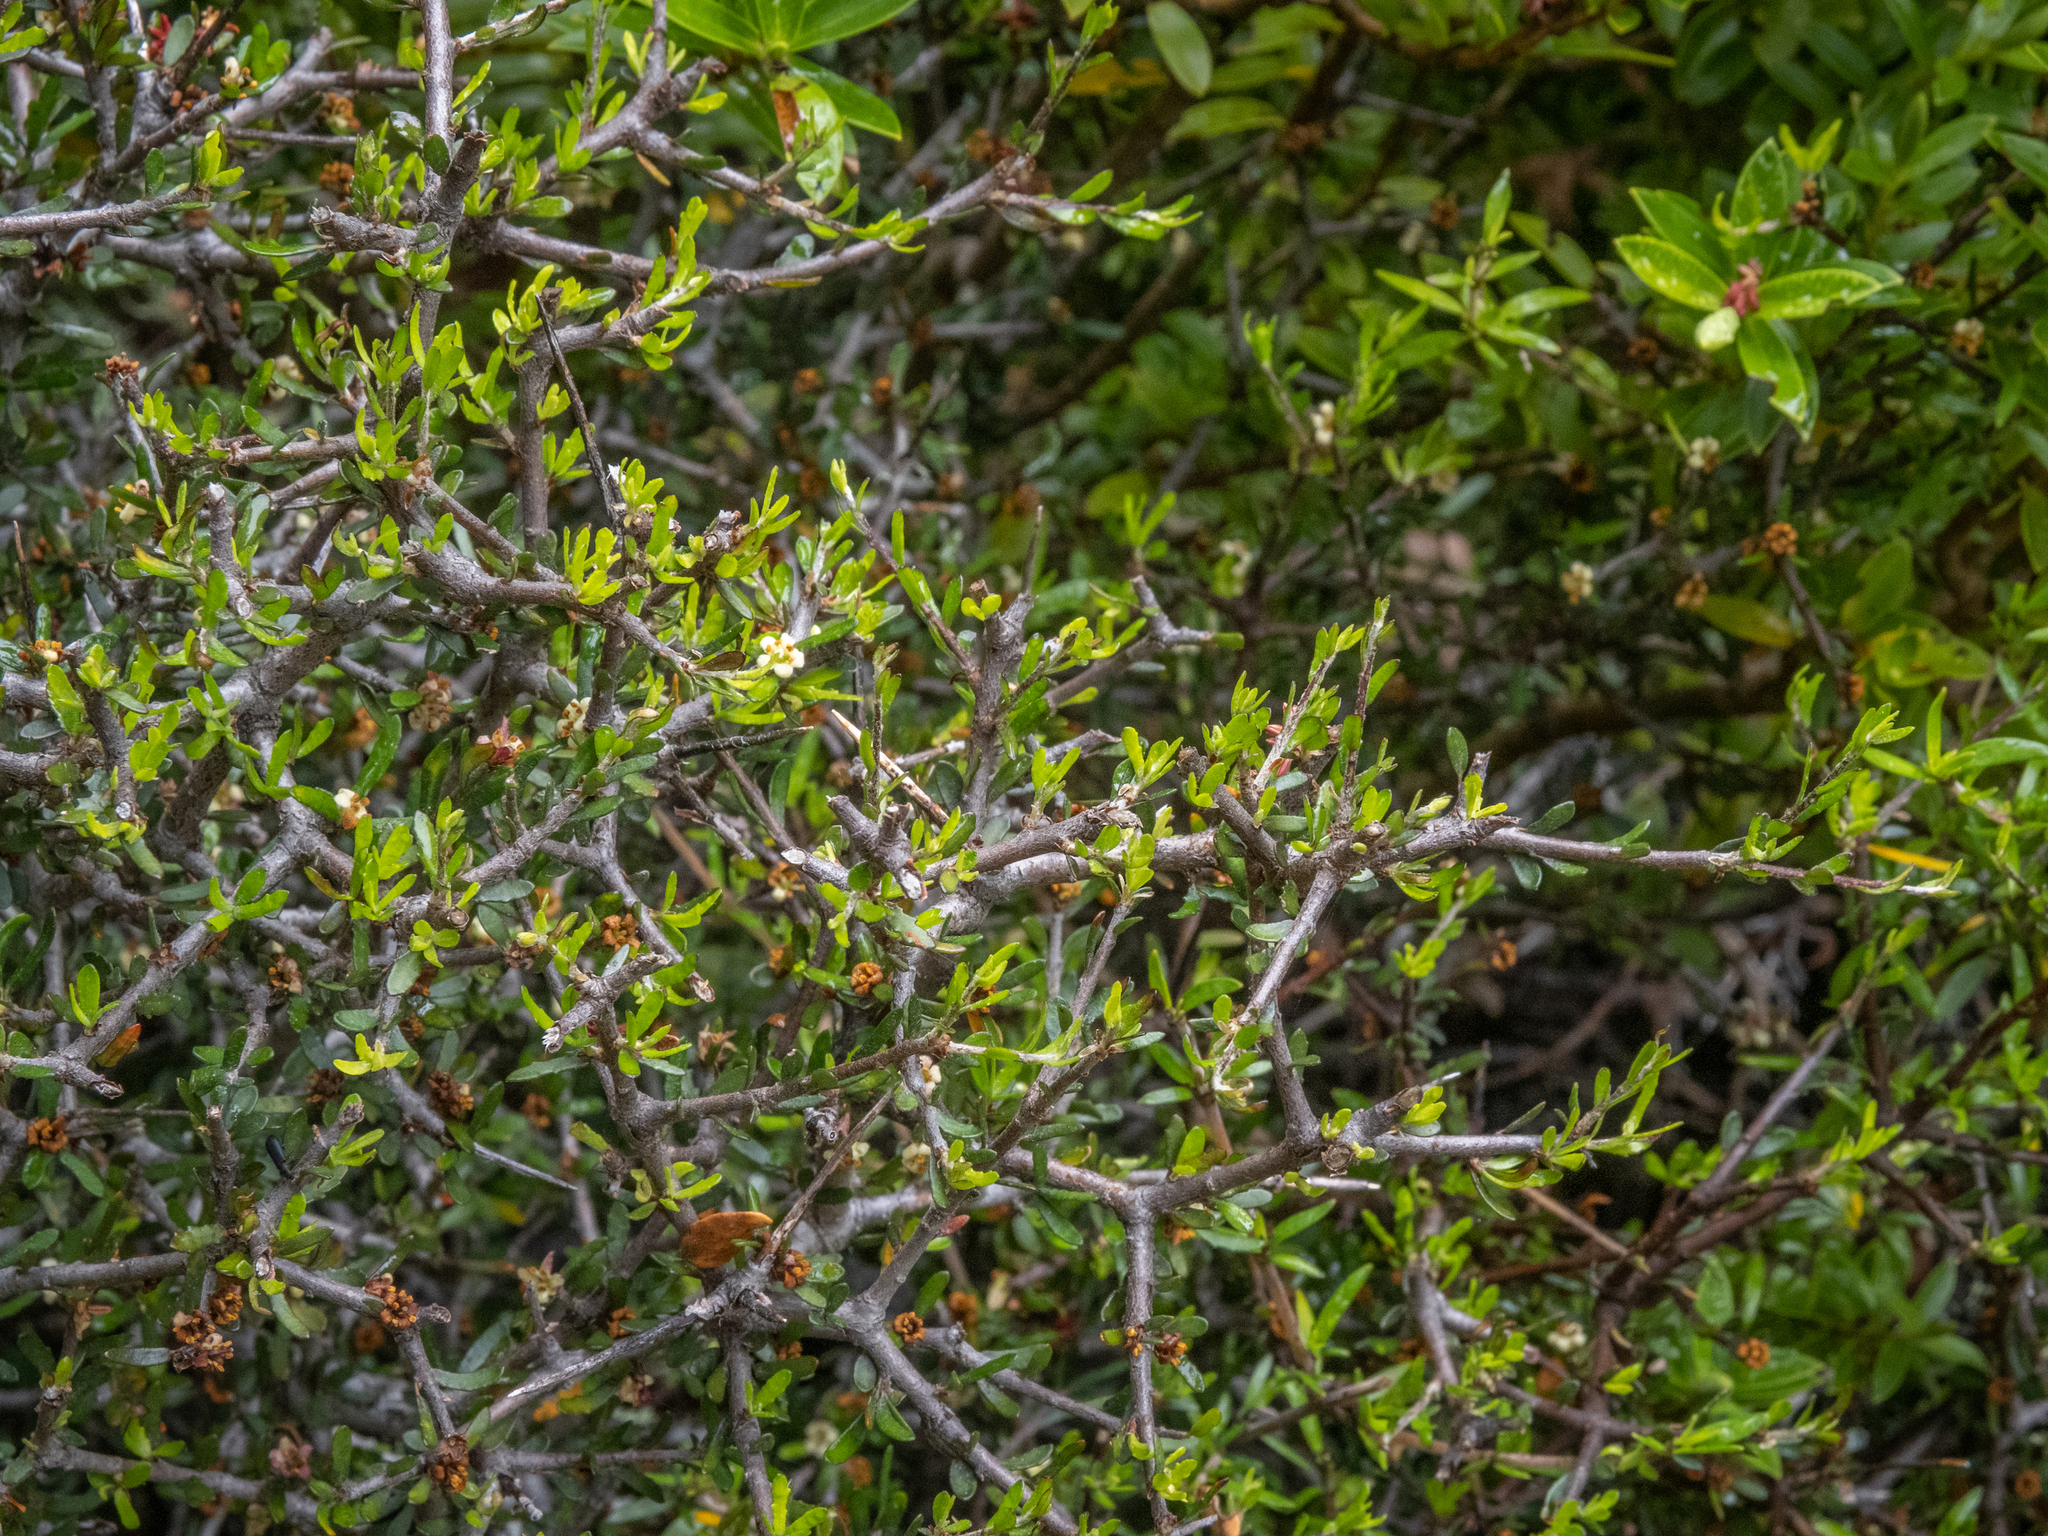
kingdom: Plantae
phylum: Tracheophyta
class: Magnoliopsida
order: Apiales
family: Pittosporaceae
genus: Pittosporum
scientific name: Pittosporum anomalum
